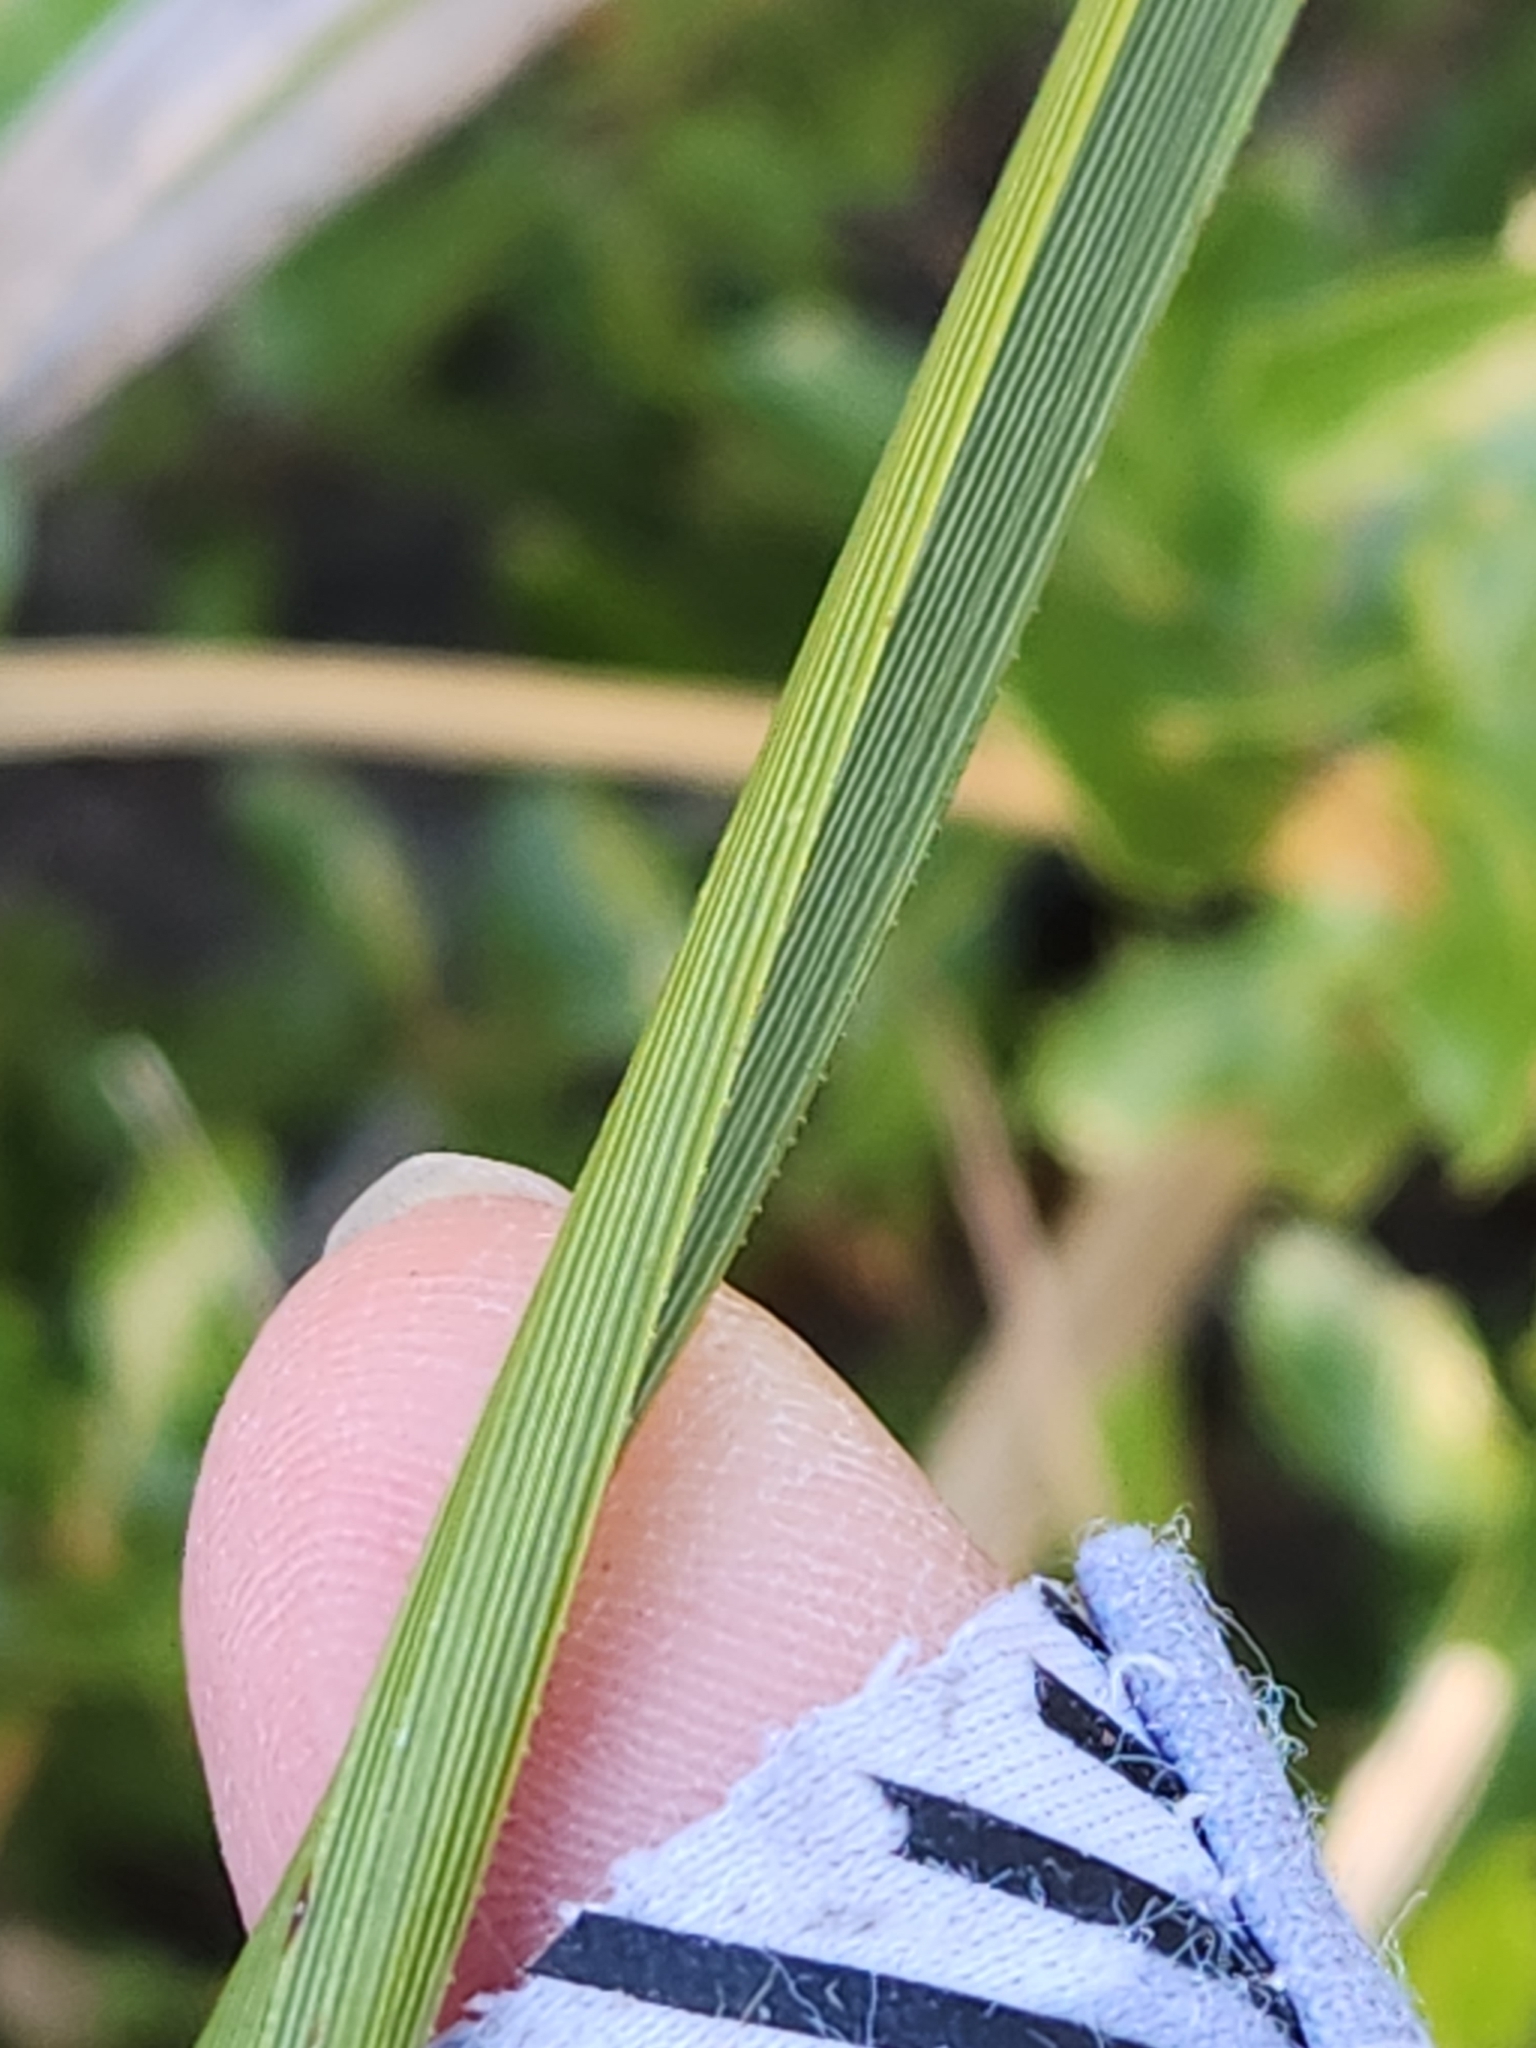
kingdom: Plantae
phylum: Tracheophyta
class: Liliopsida
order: Asparagales
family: Asparagaceae
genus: Nolina
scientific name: Nolina lindheimeriana
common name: Lindheimer's bear-grass
